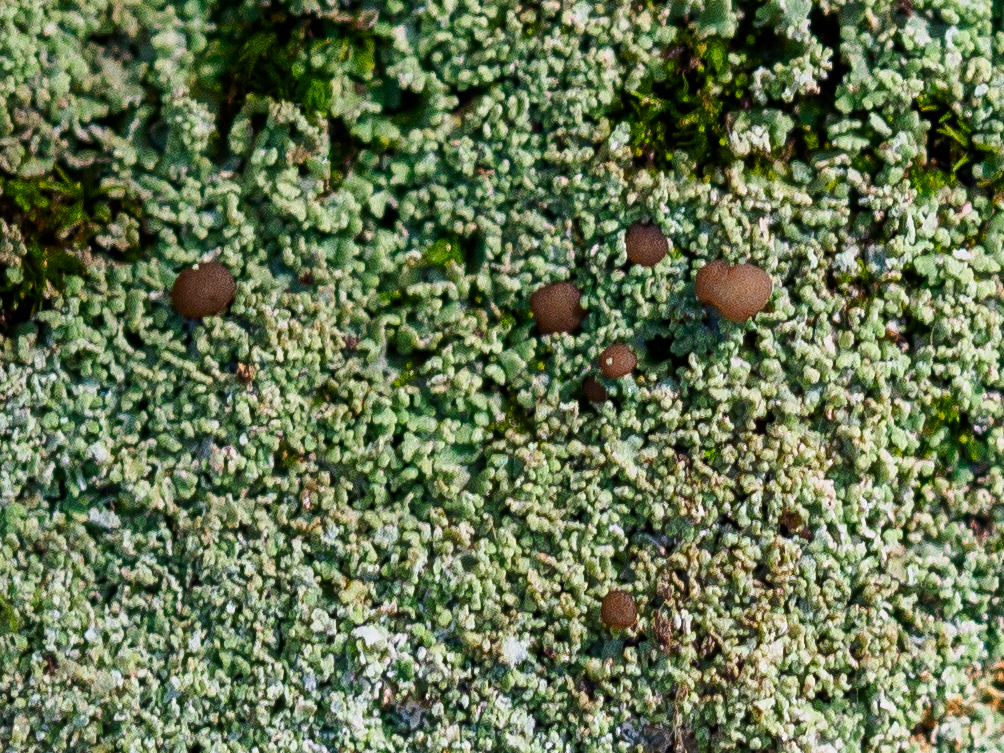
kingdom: Fungi
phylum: Ascomycota
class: Lecanoromycetes
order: Baeomycetales
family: Baeomycetaceae
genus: Baeomyces
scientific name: Baeomyces rufus
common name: Brown beret lichen
